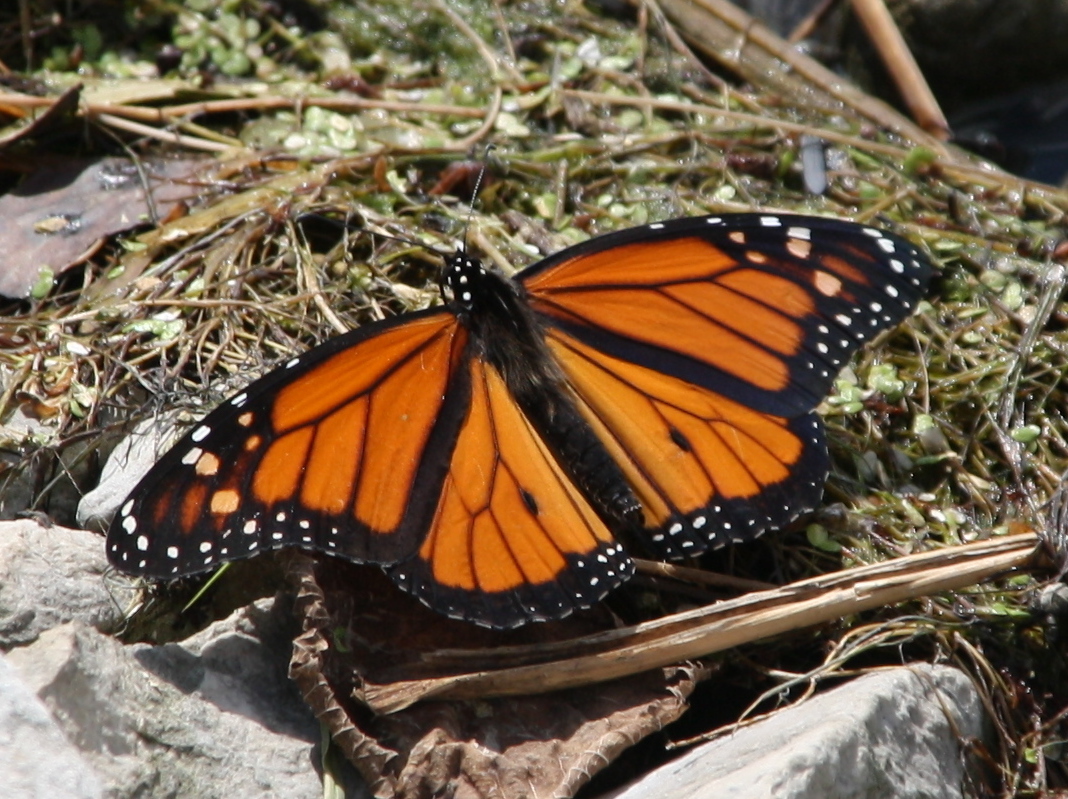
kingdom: Animalia
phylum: Arthropoda
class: Insecta
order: Lepidoptera
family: Nymphalidae
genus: Danaus
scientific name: Danaus plexippus
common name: Monarch
